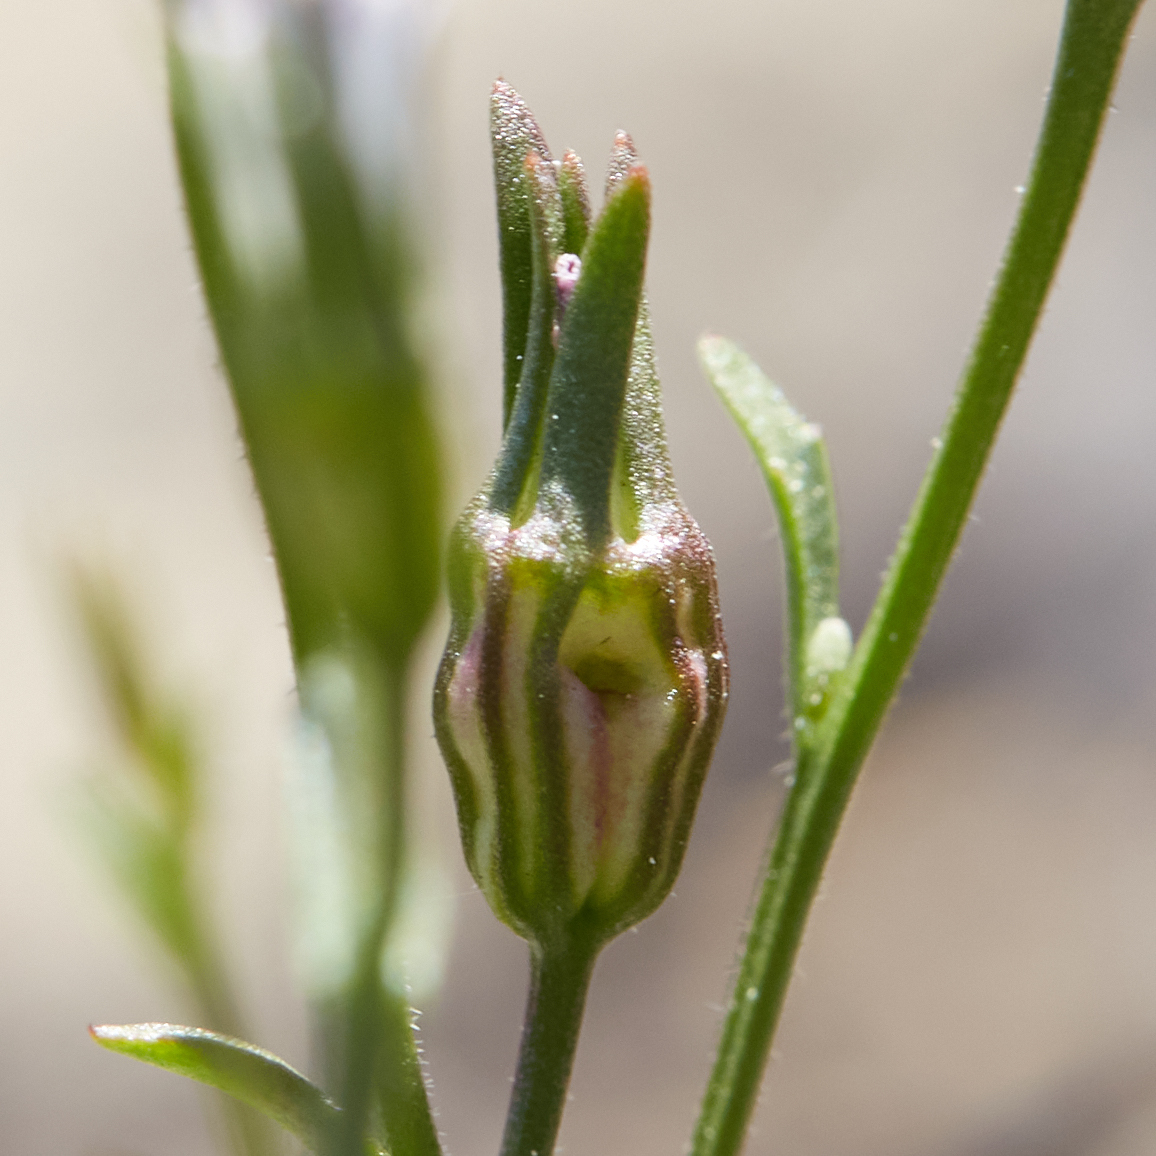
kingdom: Plantae
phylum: Tracheophyta
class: Magnoliopsida
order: Asterales
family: Campanulaceae
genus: Ravenella
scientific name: Ravenella griffinii
